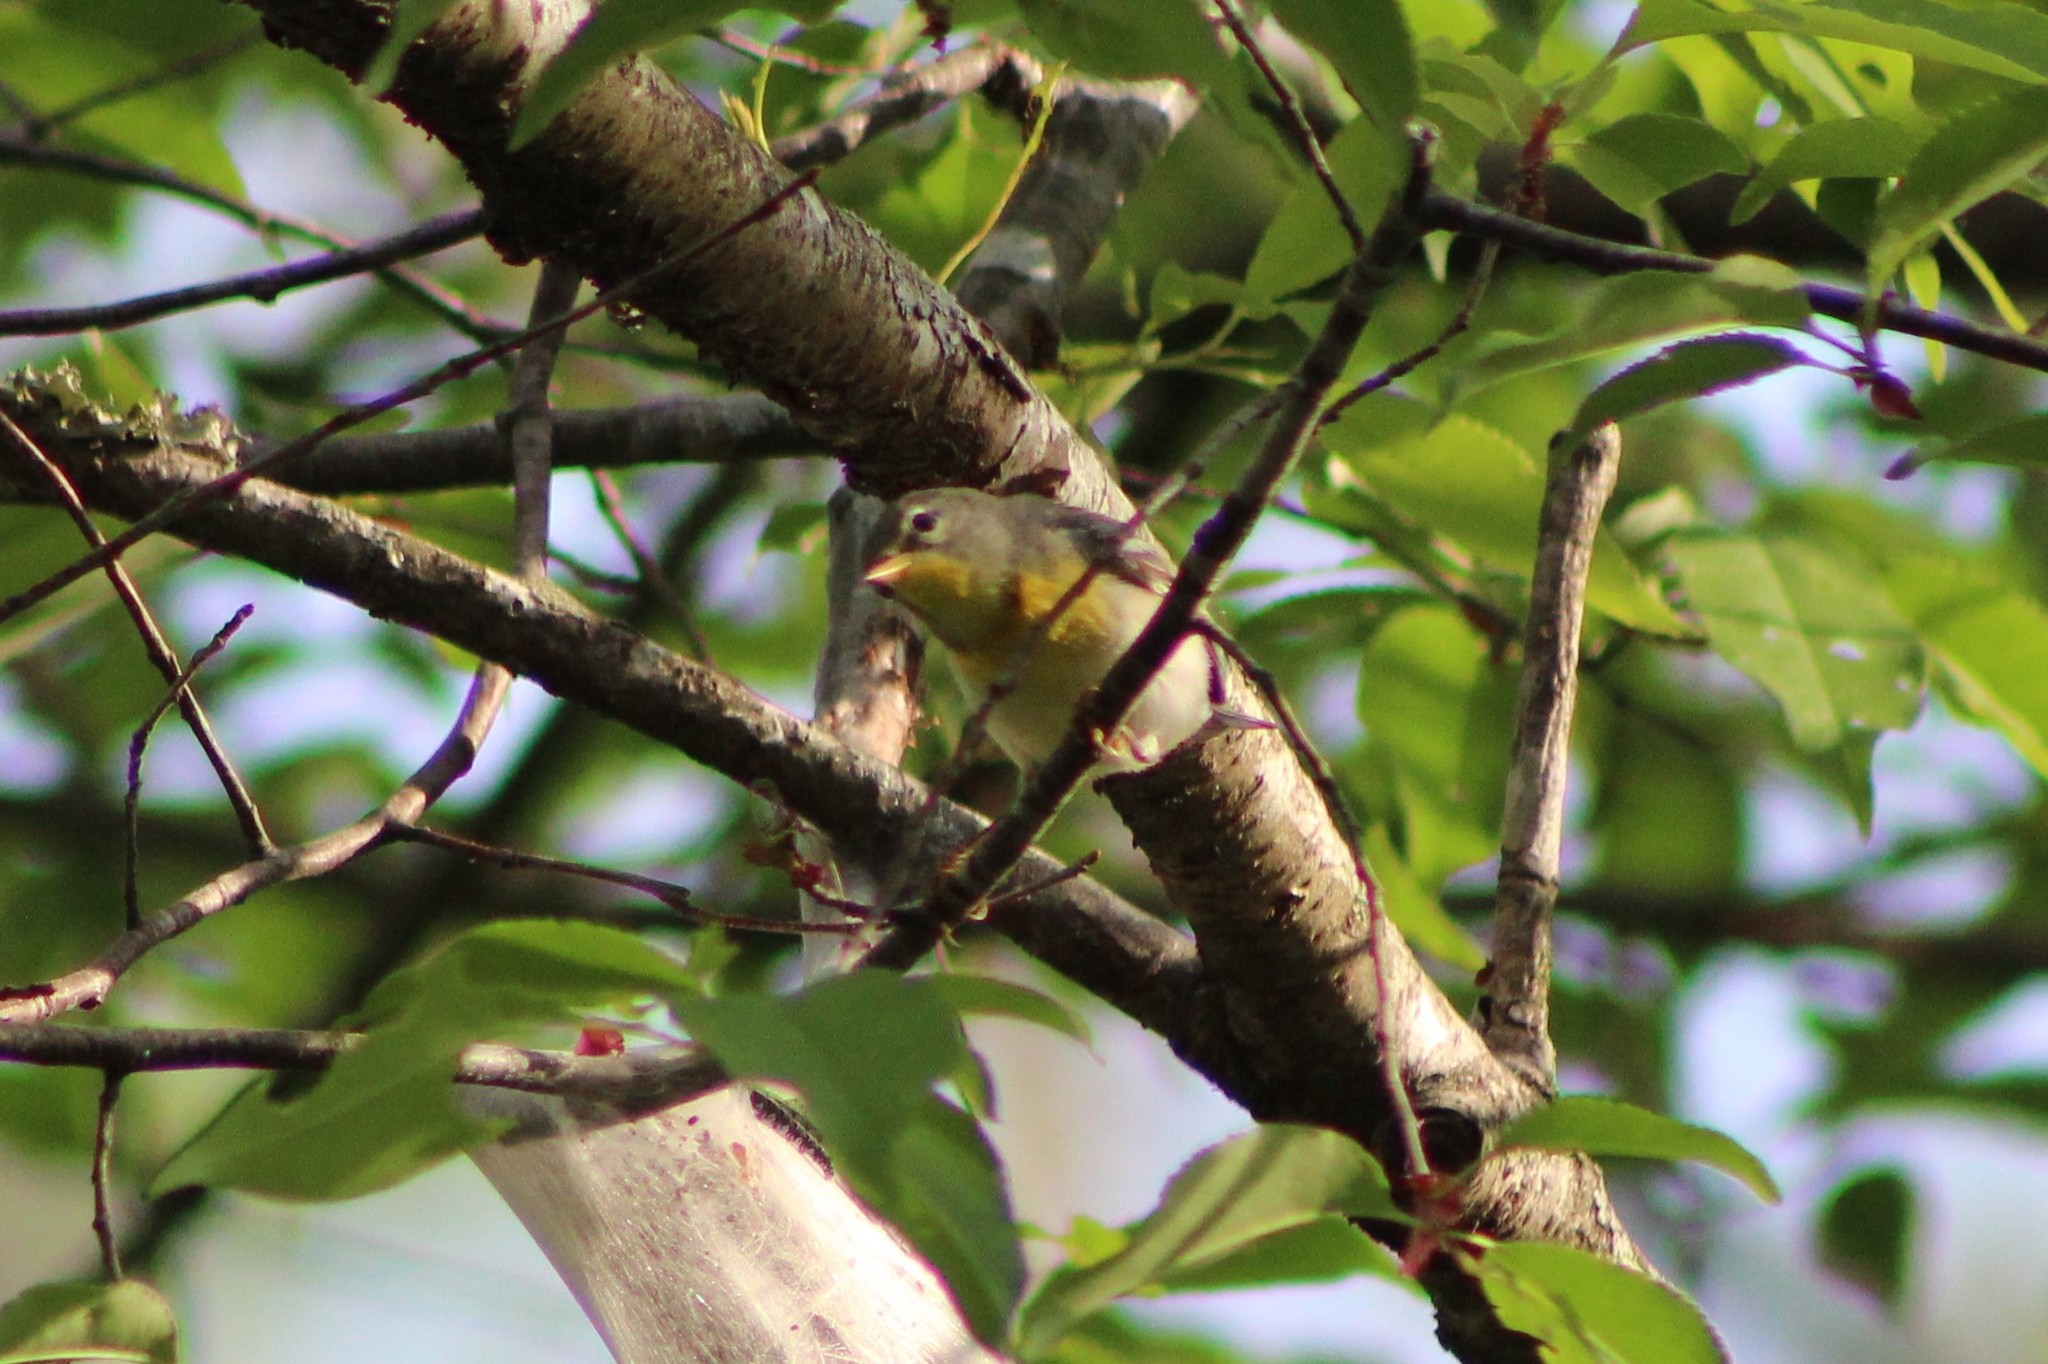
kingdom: Animalia
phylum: Chordata
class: Aves
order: Passeriformes
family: Parulidae
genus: Setophaga
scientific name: Setophaga americana
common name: Northern parula
